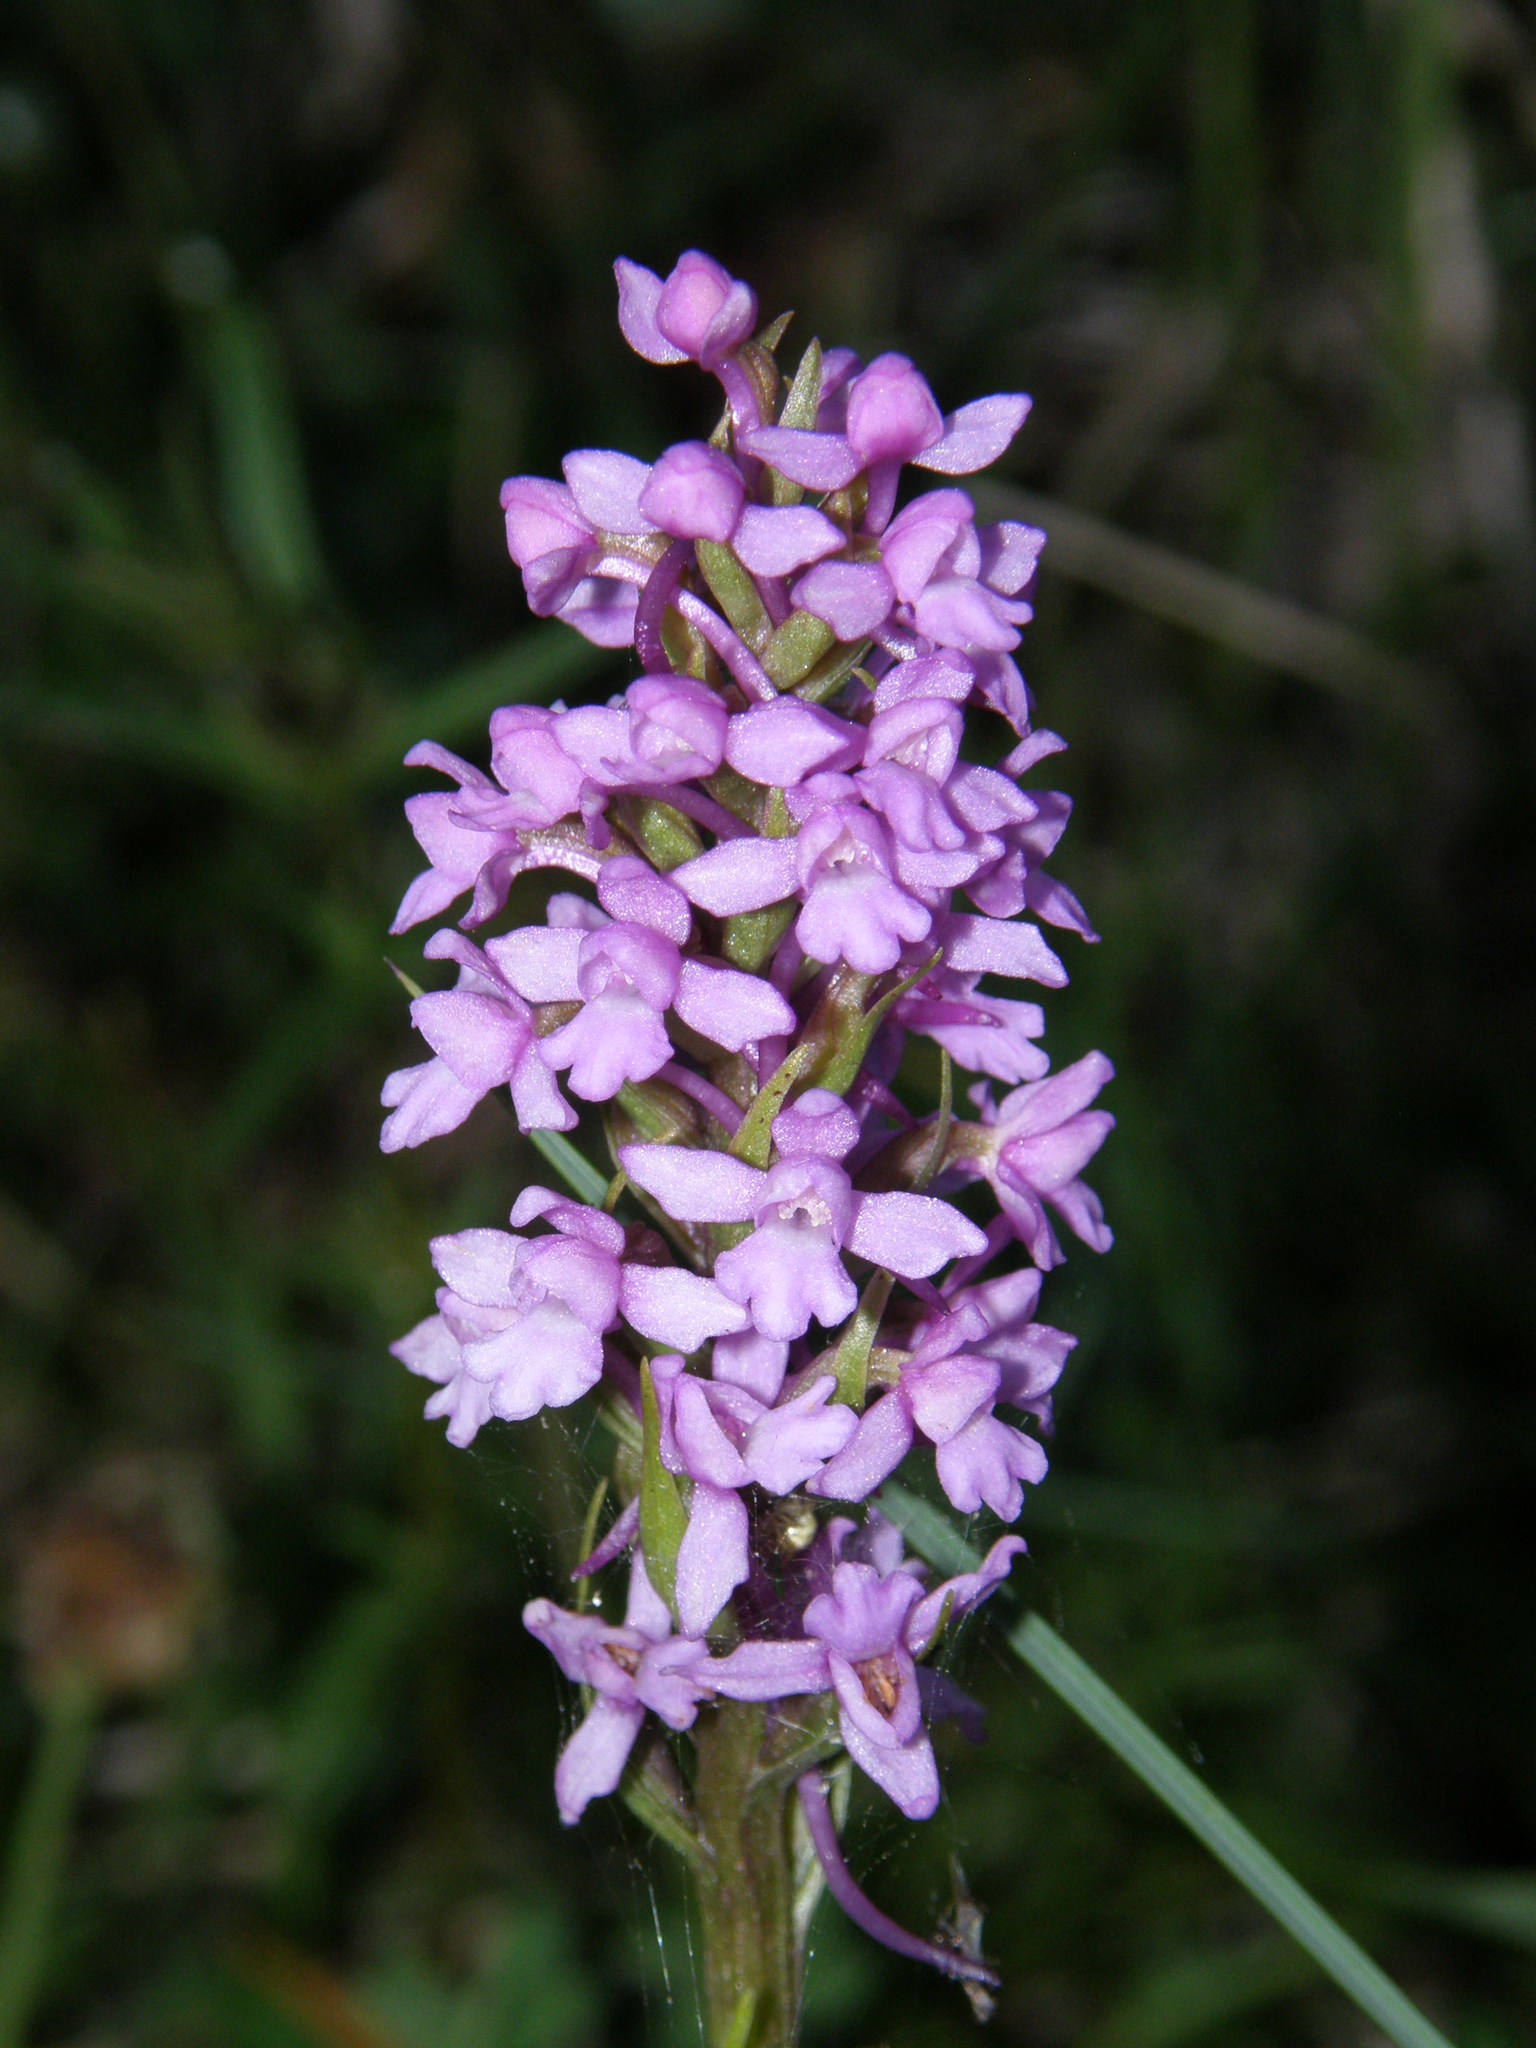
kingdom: Plantae
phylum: Tracheophyta
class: Liliopsida
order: Asparagales
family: Orchidaceae
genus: Gymnadenia
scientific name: Gymnadenia conopsea
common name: Fragrant orchid
